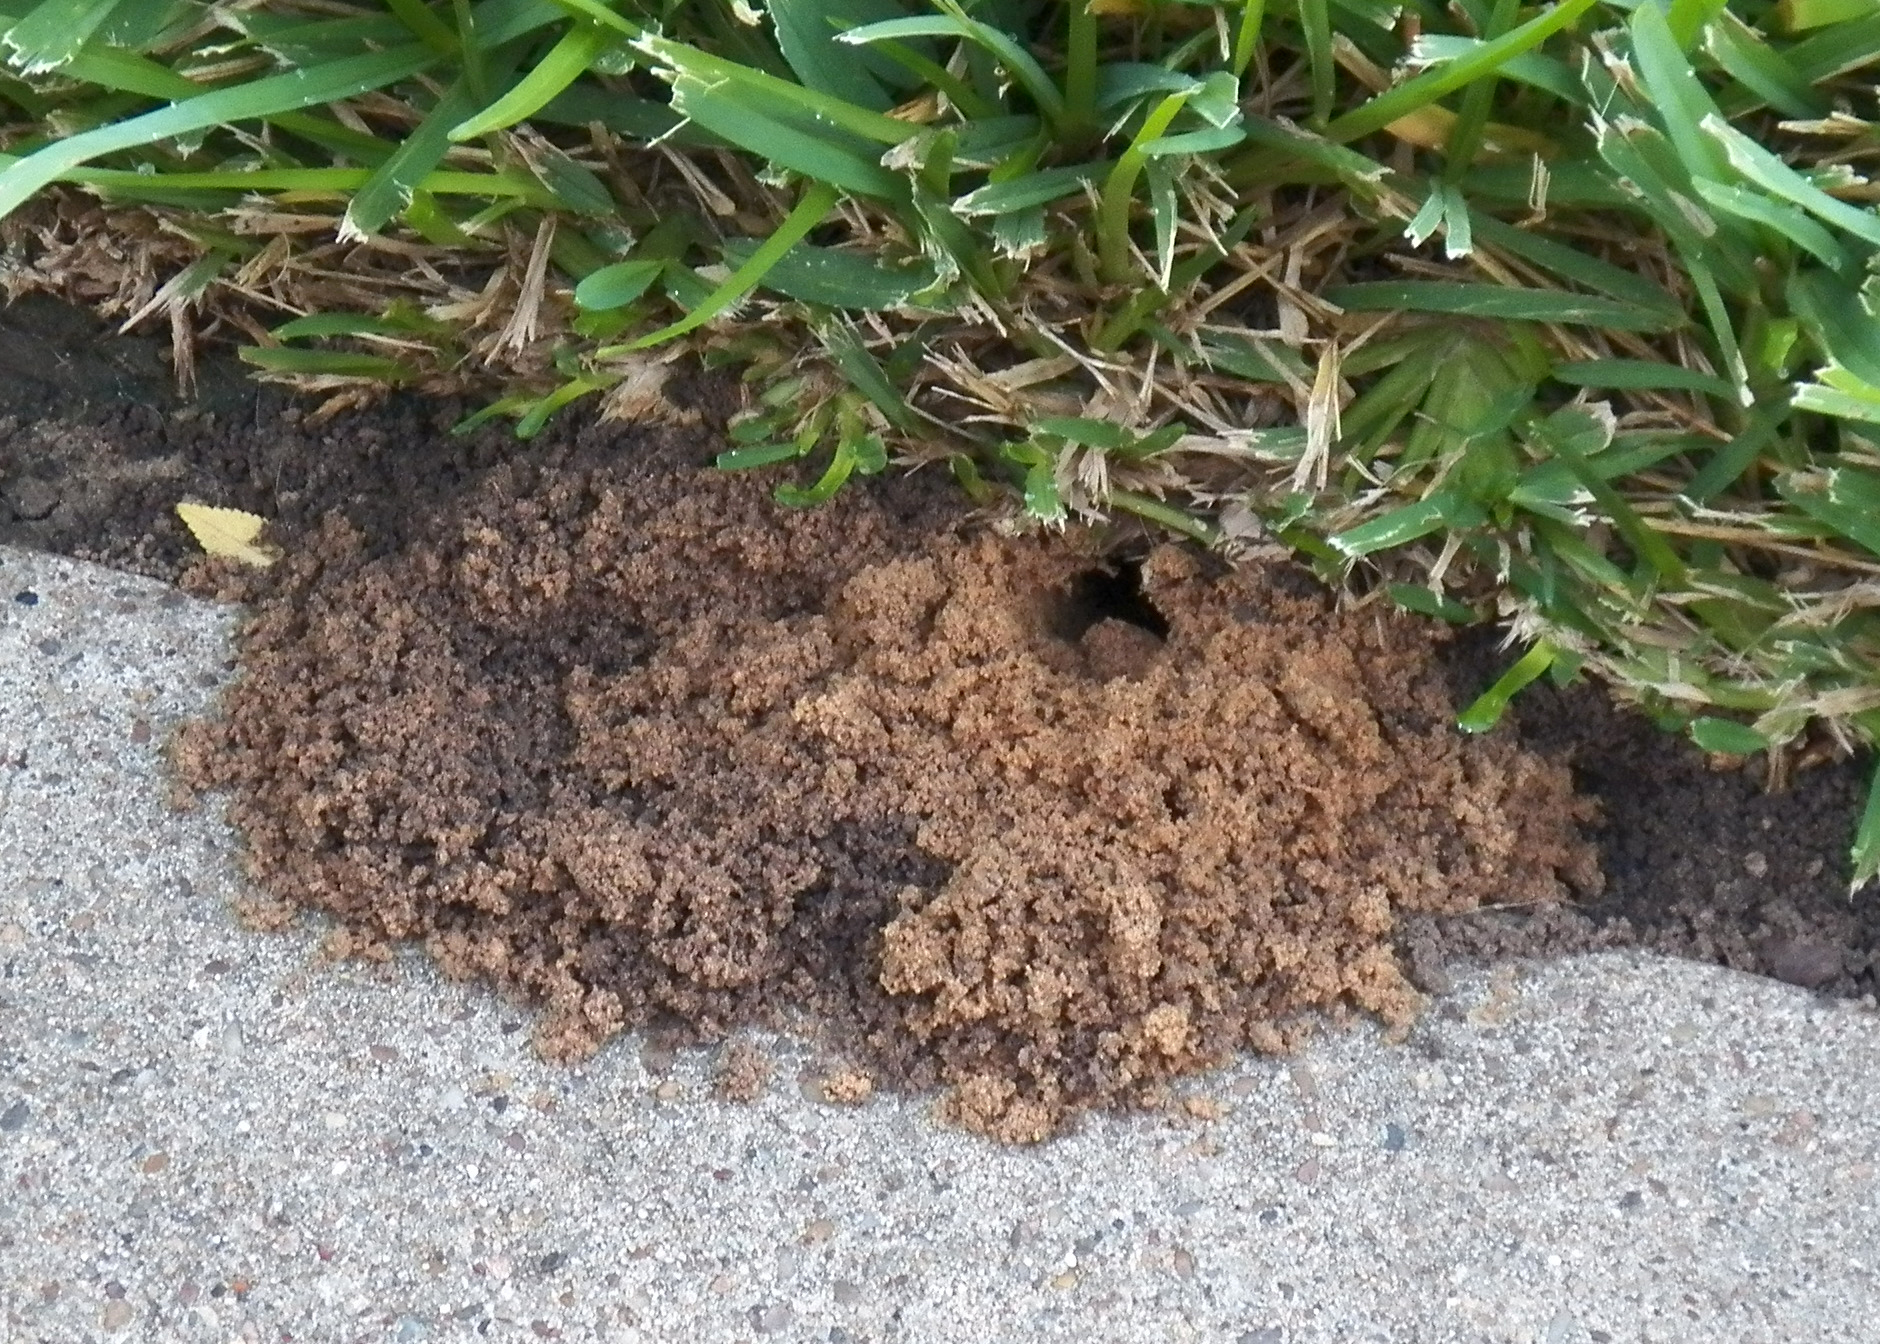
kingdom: Animalia
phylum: Arthropoda
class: Insecta
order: Hymenoptera
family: Crabronidae
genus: Sphecius
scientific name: Sphecius speciosus
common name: Cicada killer
